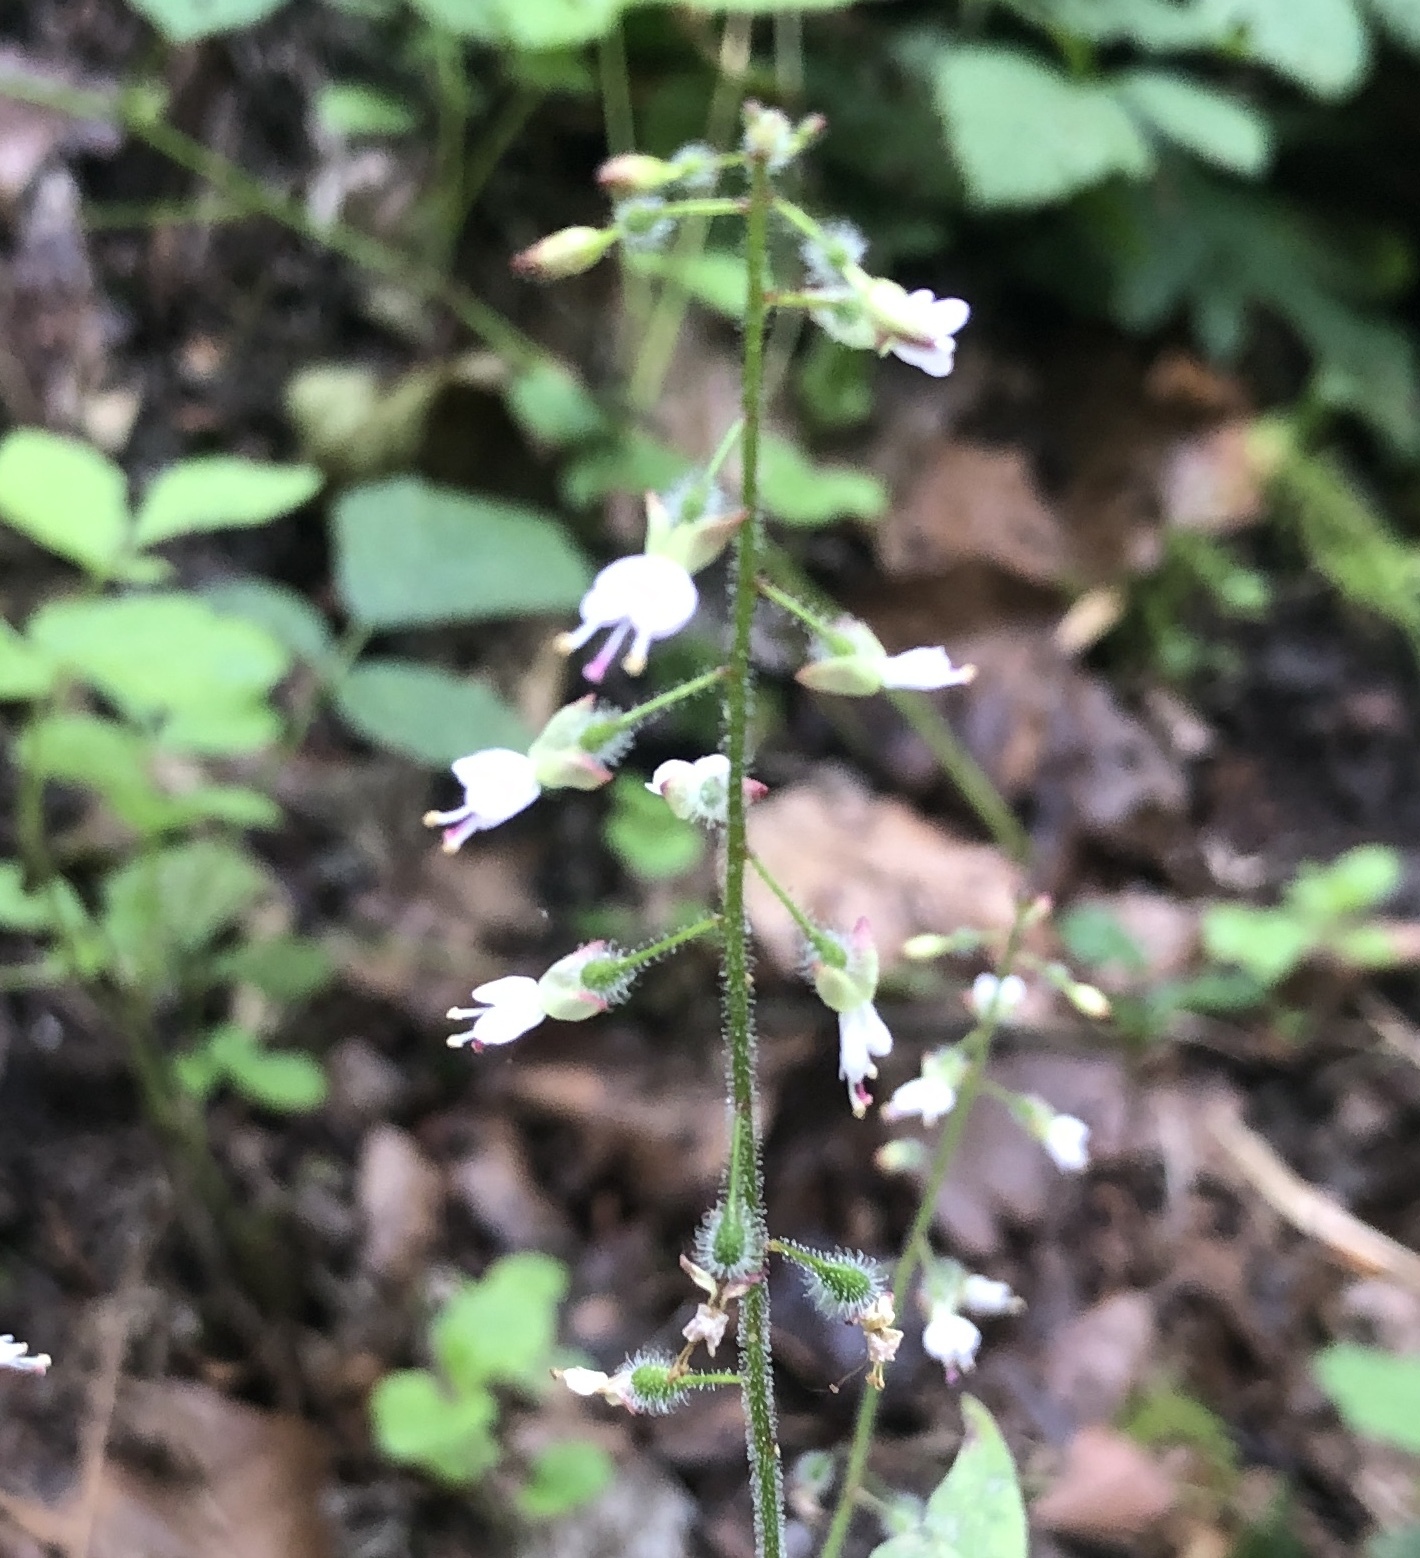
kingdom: Plantae
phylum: Tracheophyta
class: Magnoliopsida
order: Myrtales
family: Onagraceae
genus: Circaea
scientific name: Circaea lutetiana
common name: Enchanter's-nightshade
